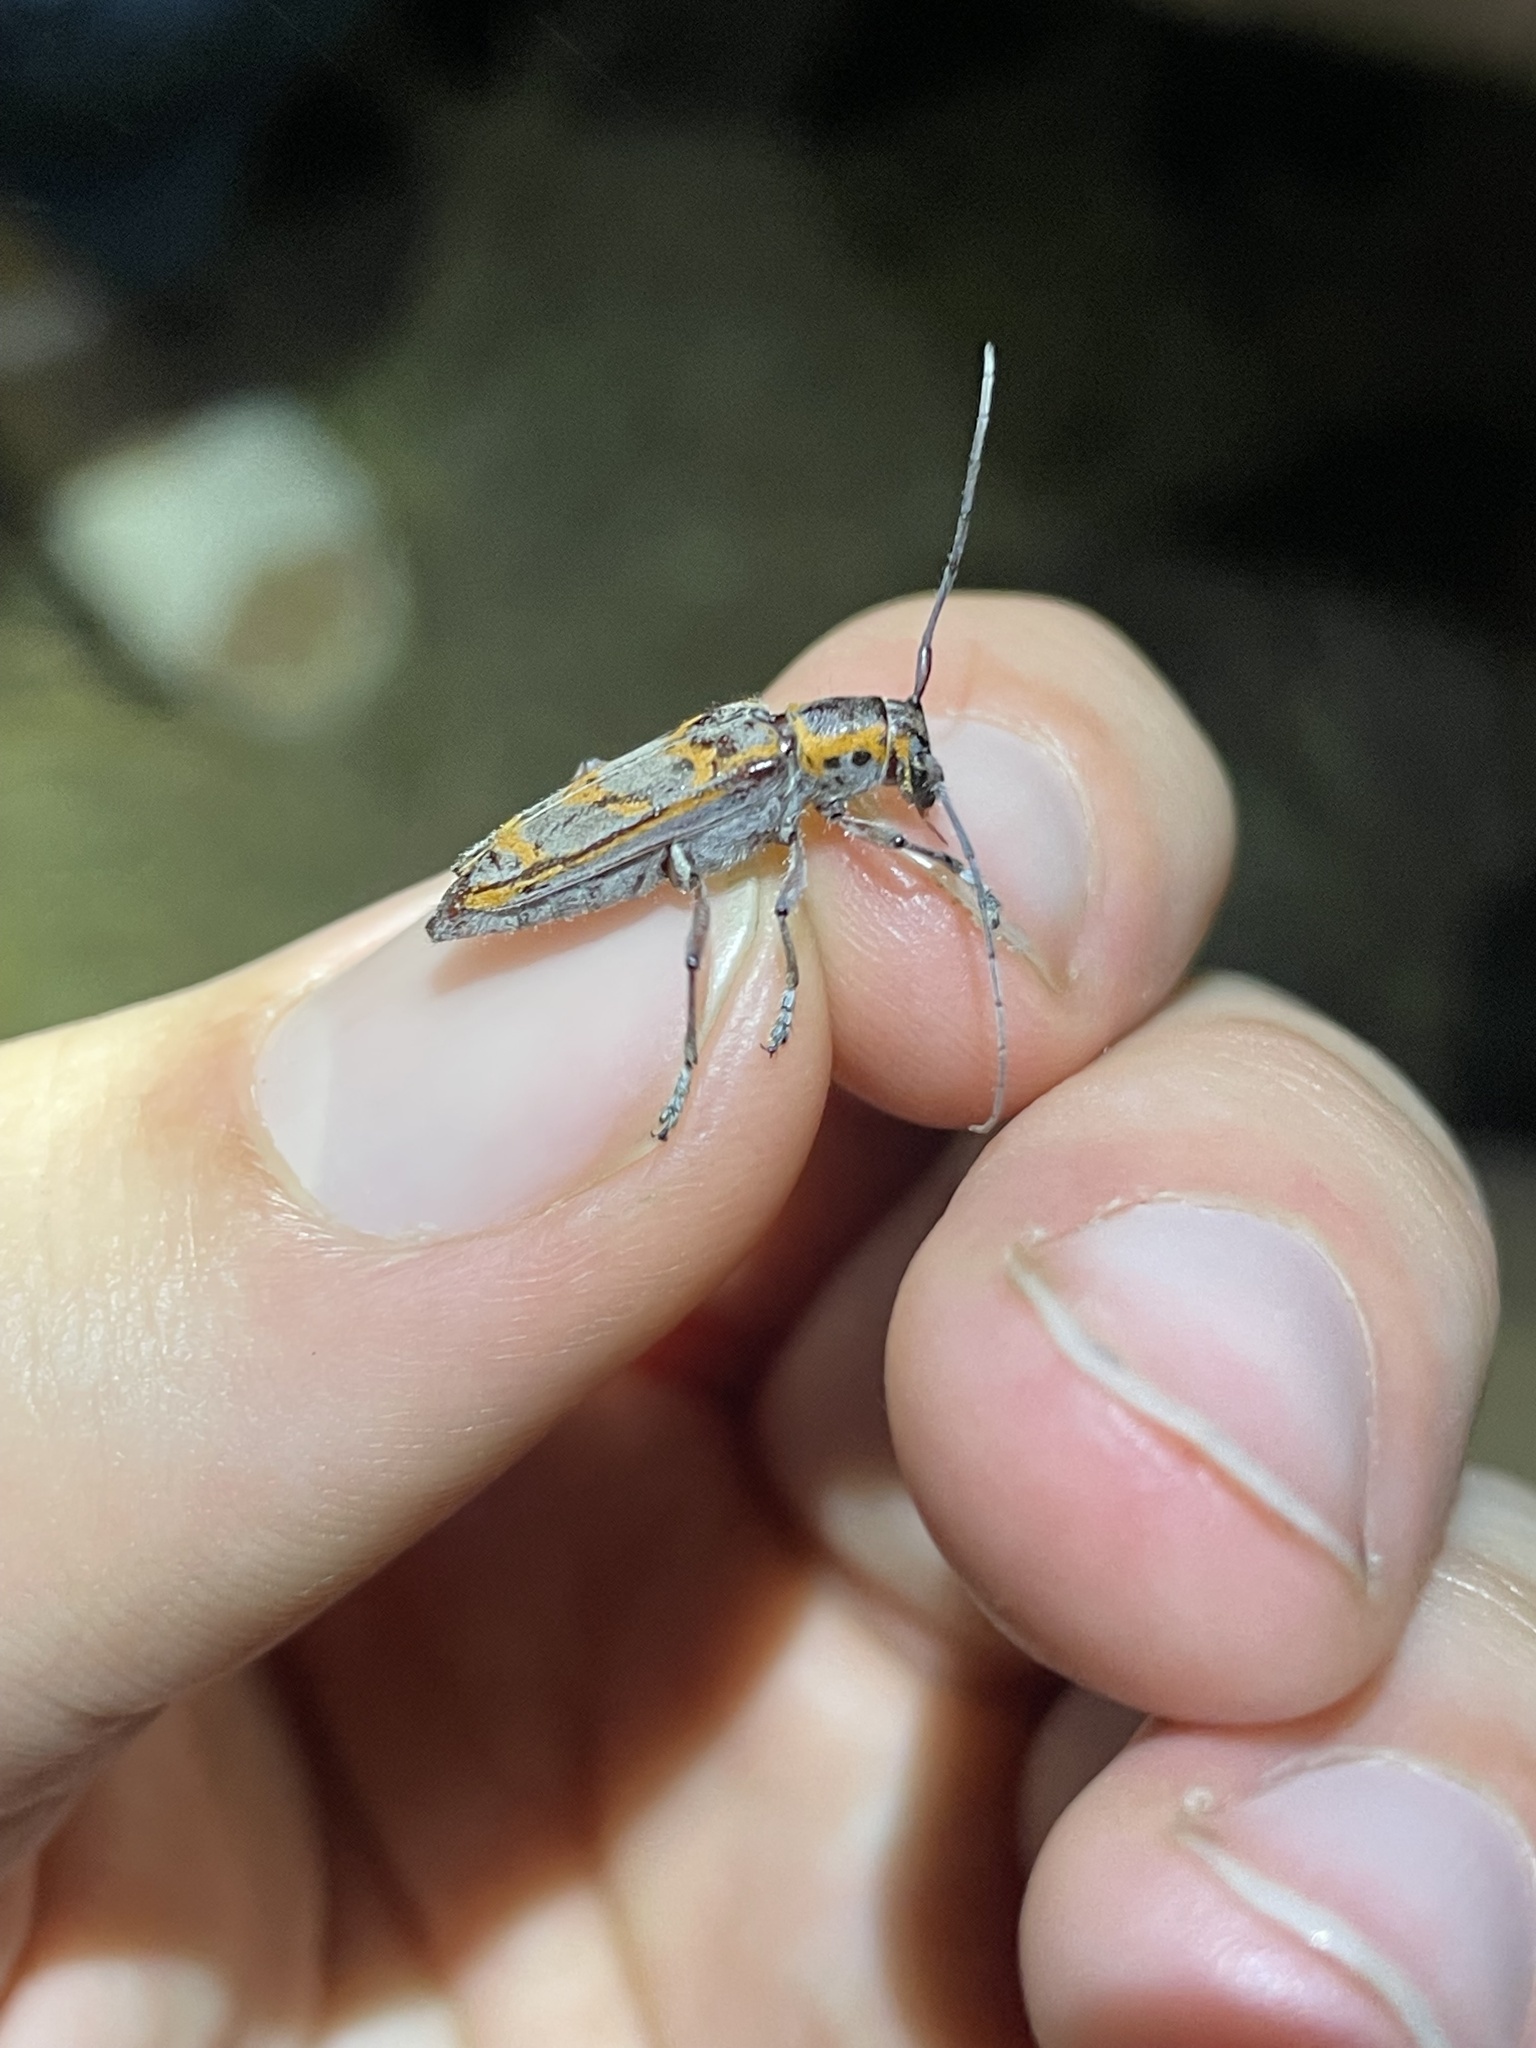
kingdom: Animalia
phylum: Arthropoda
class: Insecta
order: Coleoptera
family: Cerambycidae
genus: Saperda
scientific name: Saperda tridentata
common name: Elm borer
